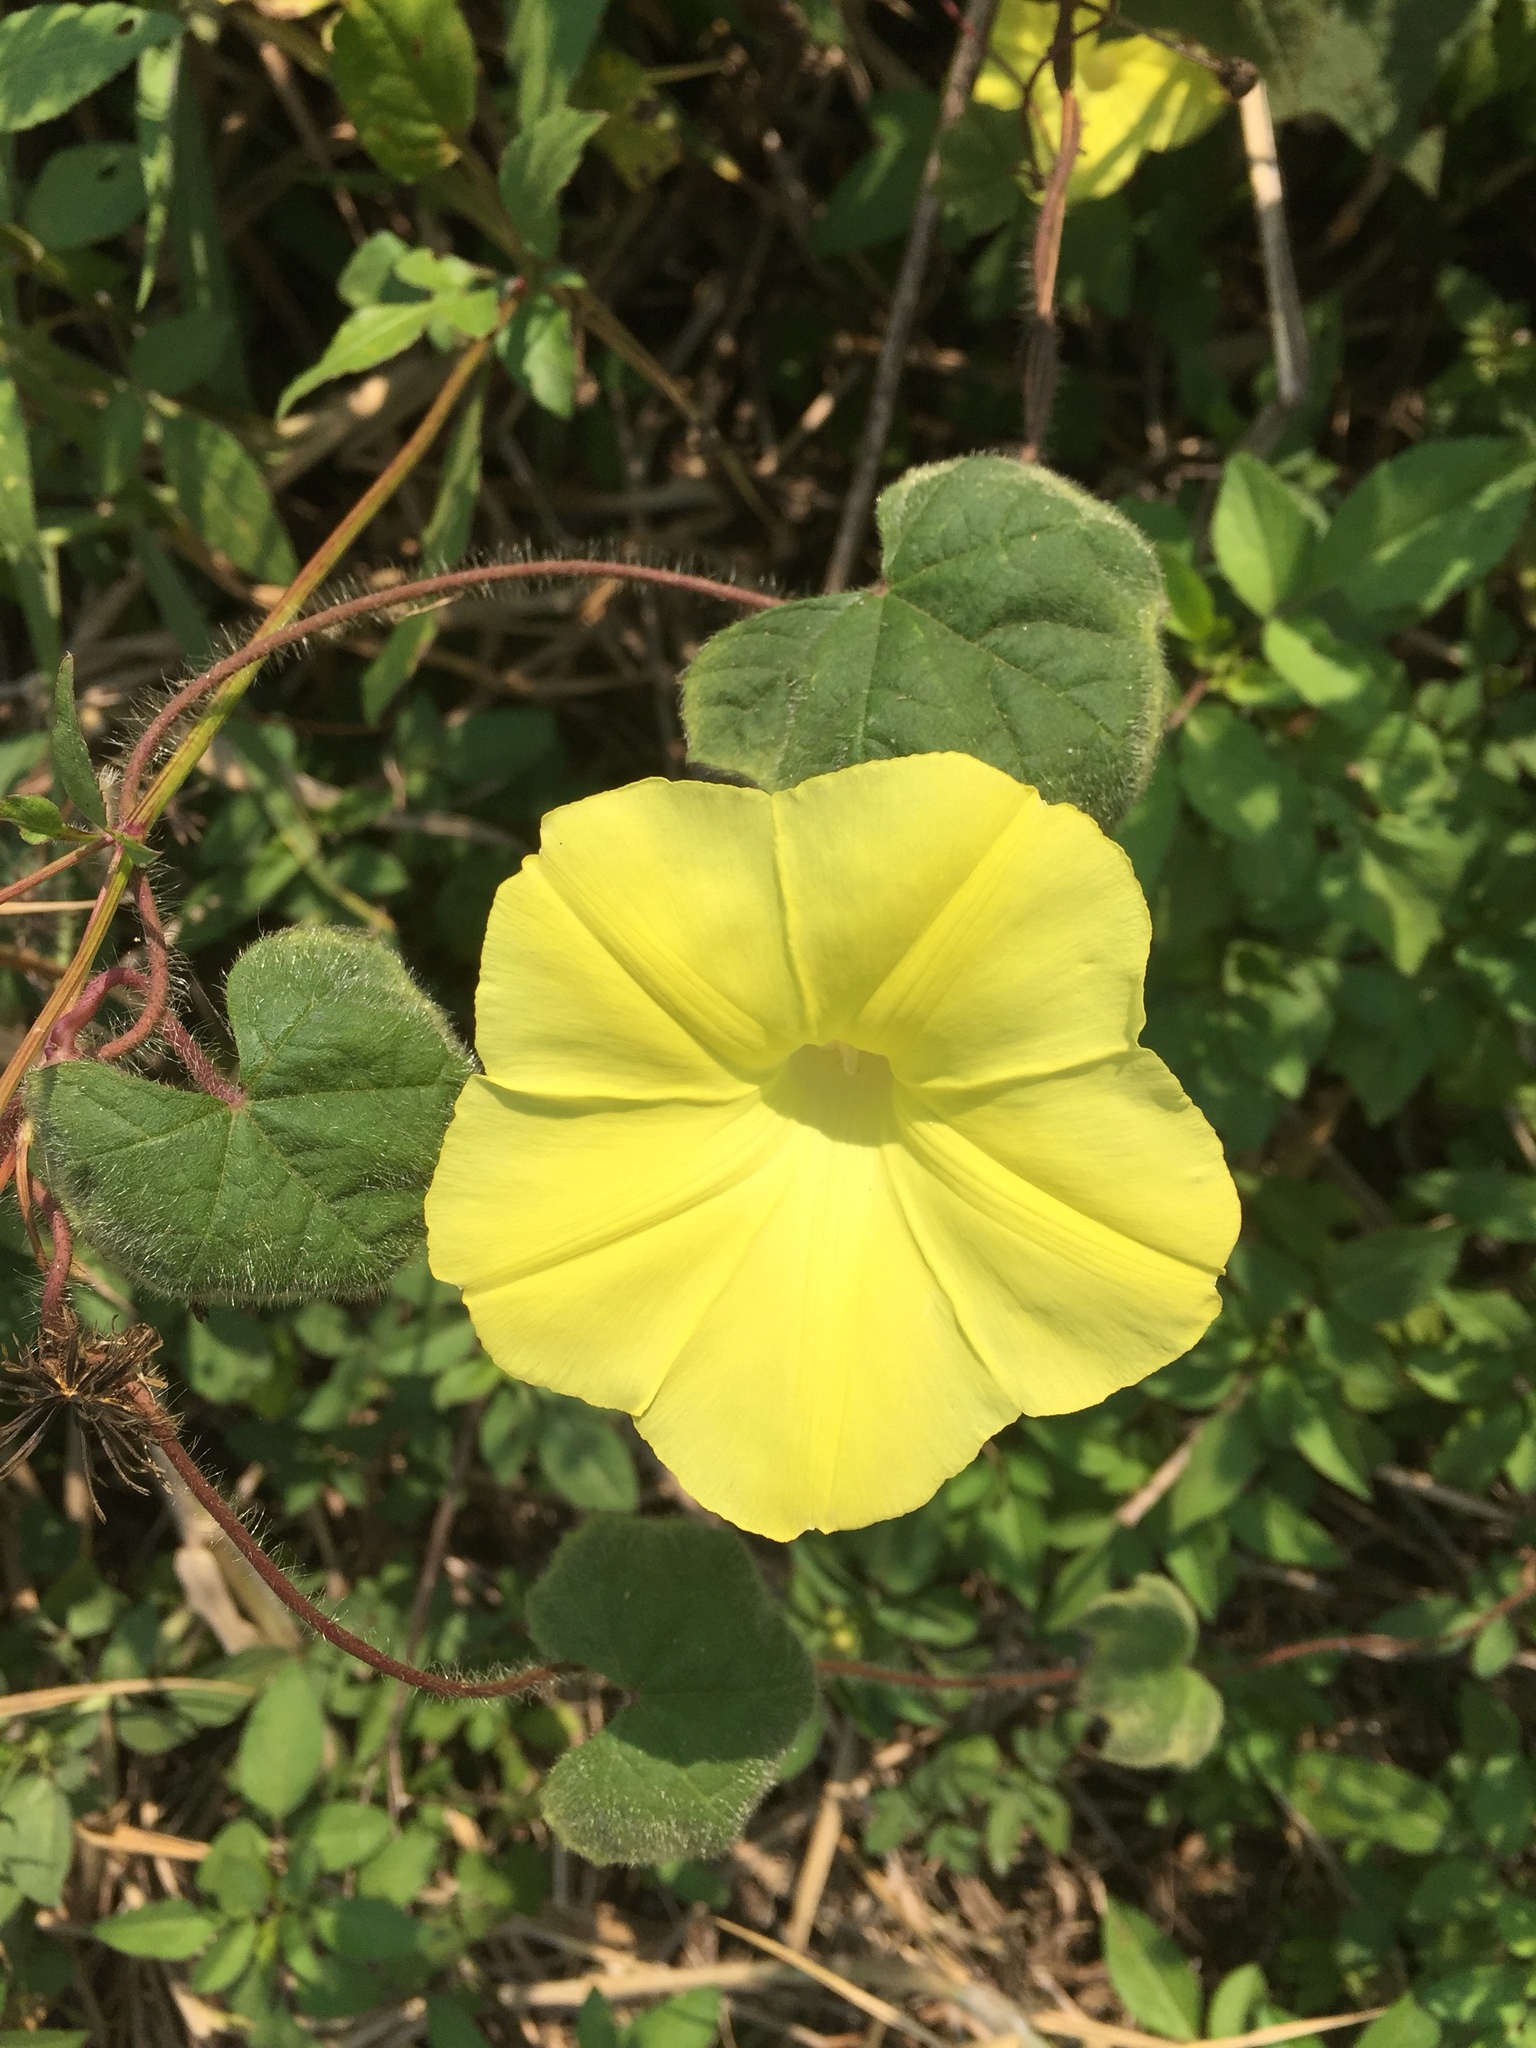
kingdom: Plantae
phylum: Tracheophyta
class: Magnoliopsida
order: Solanales
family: Convolvulaceae
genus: Distimake
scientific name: Distimake
